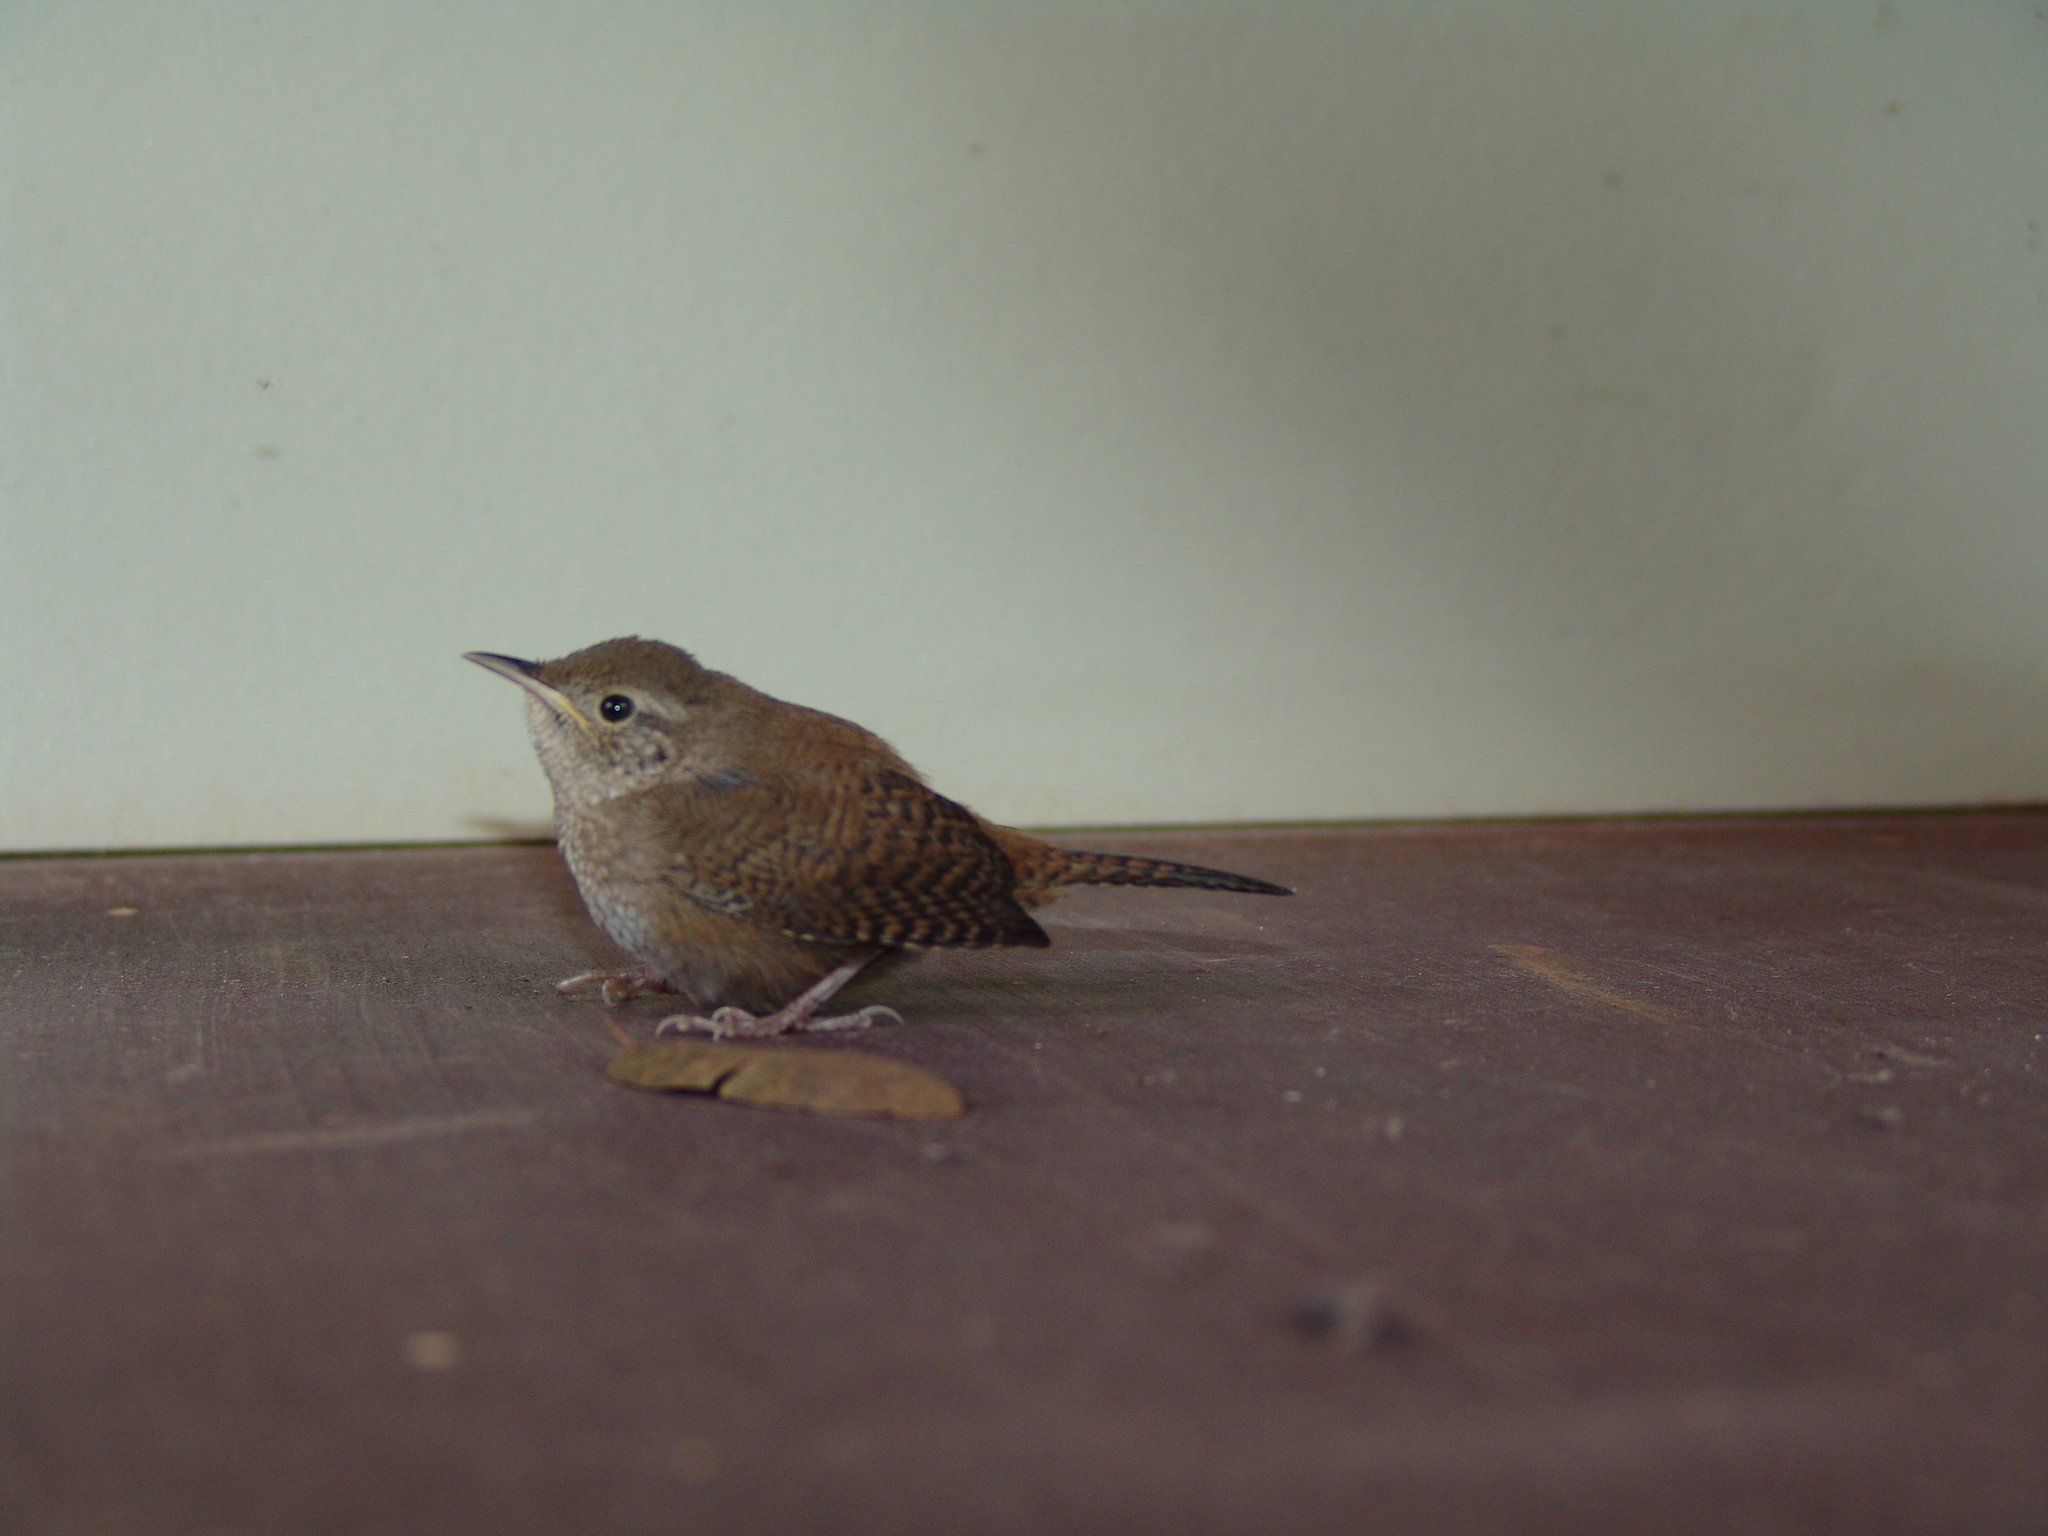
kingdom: Animalia
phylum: Chordata
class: Aves
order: Passeriformes
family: Troglodytidae
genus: Troglodytes
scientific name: Troglodytes aedon
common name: House wren
